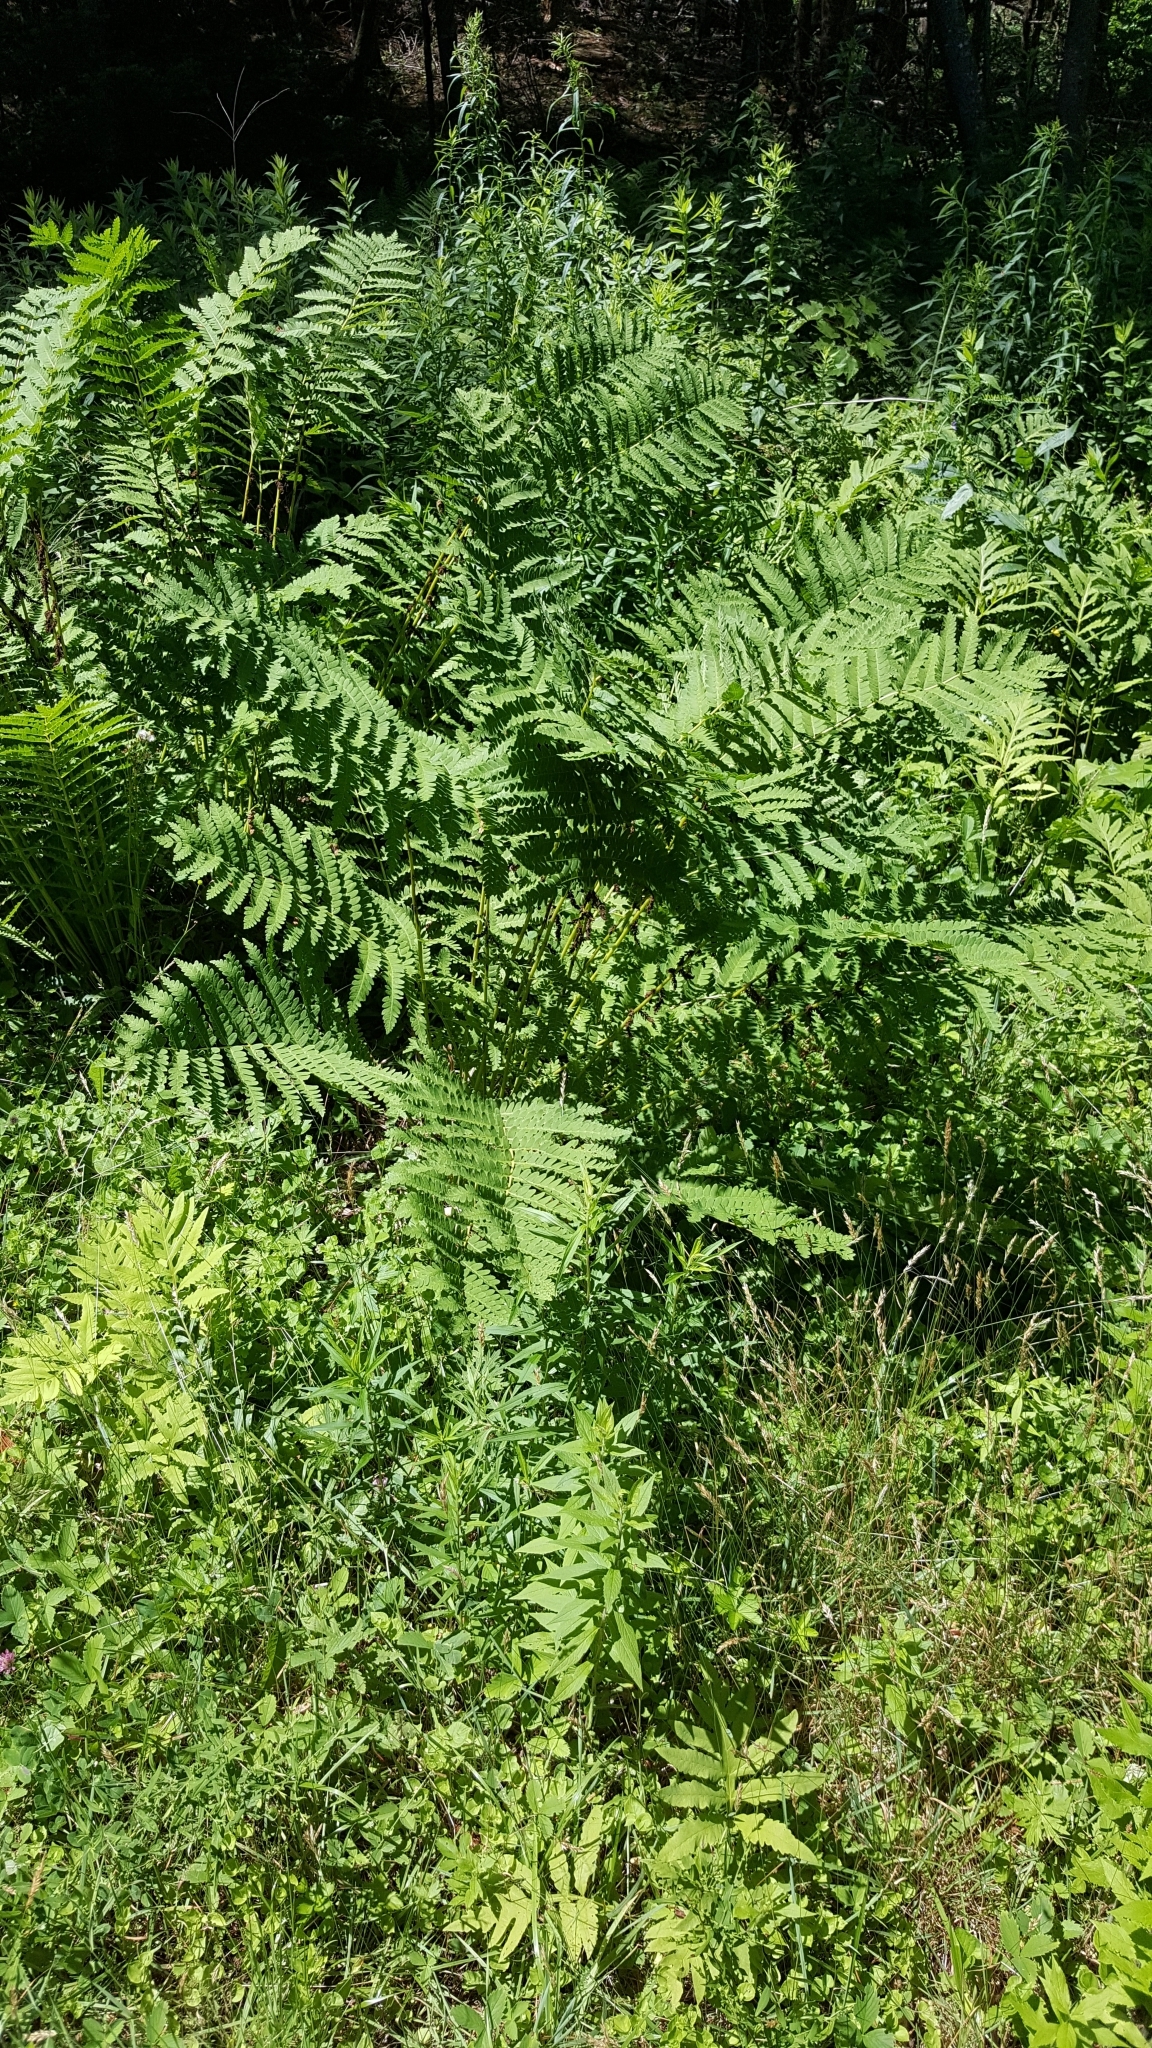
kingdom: Plantae
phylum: Tracheophyta
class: Polypodiopsida
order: Osmundales
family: Osmundaceae
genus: Claytosmunda
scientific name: Claytosmunda claytoniana
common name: Clayton's fern
